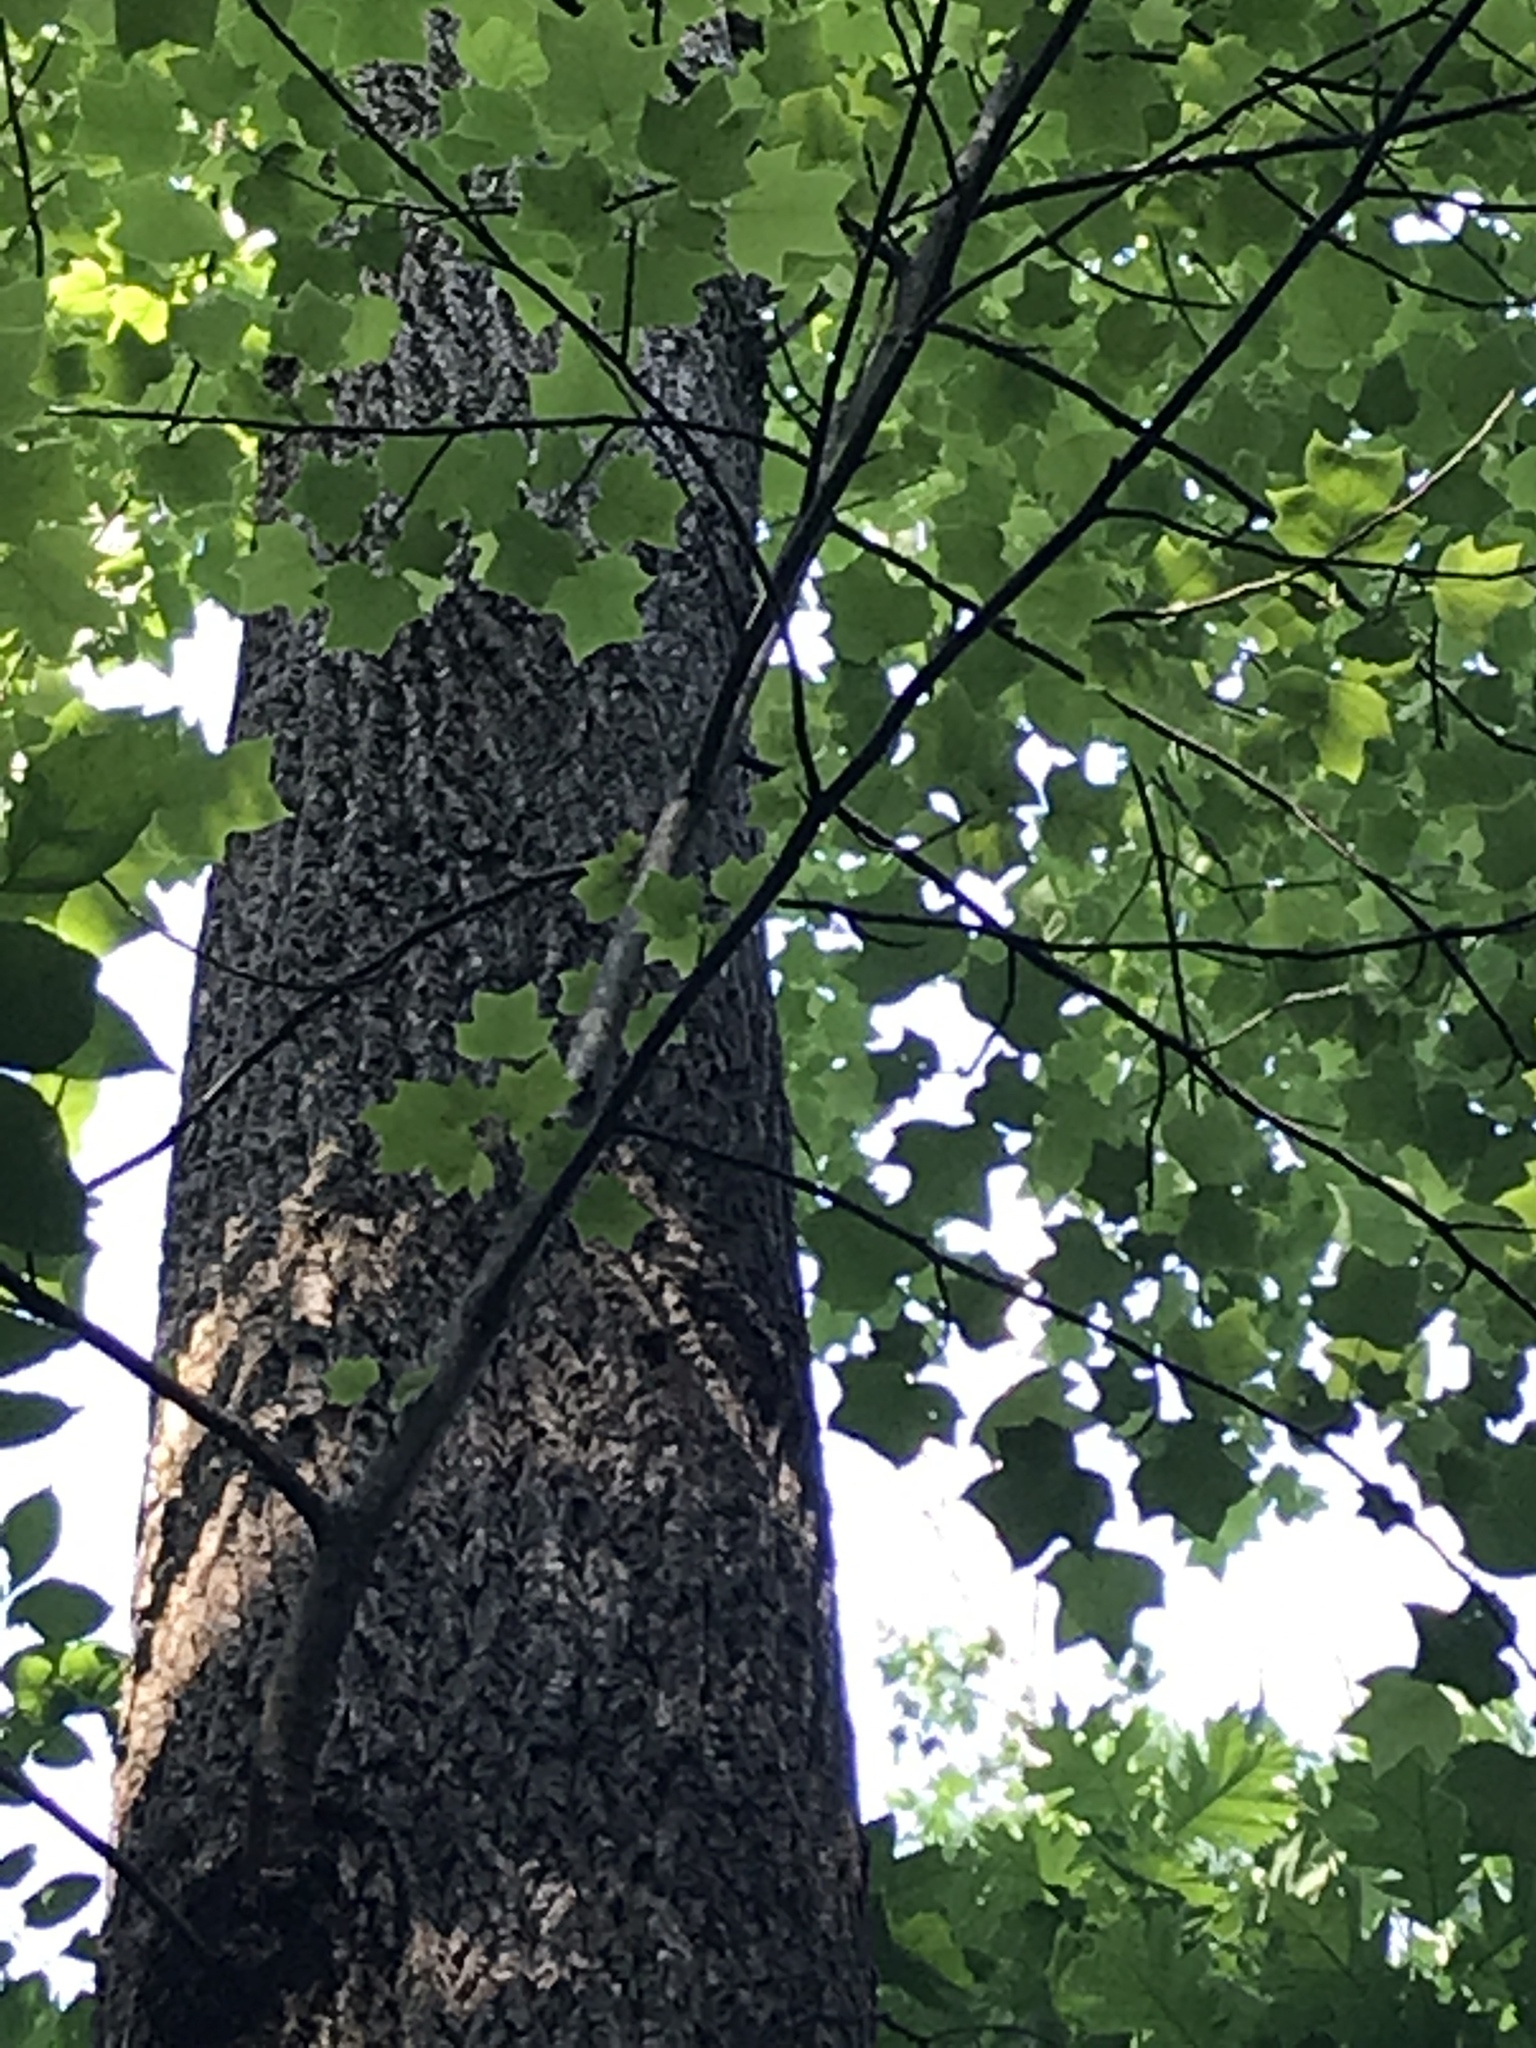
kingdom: Plantae
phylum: Tracheophyta
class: Magnoliopsida
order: Magnoliales
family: Magnoliaceae
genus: Liriodendron
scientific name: Liriodendron tulipifera
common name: Tulip tree
